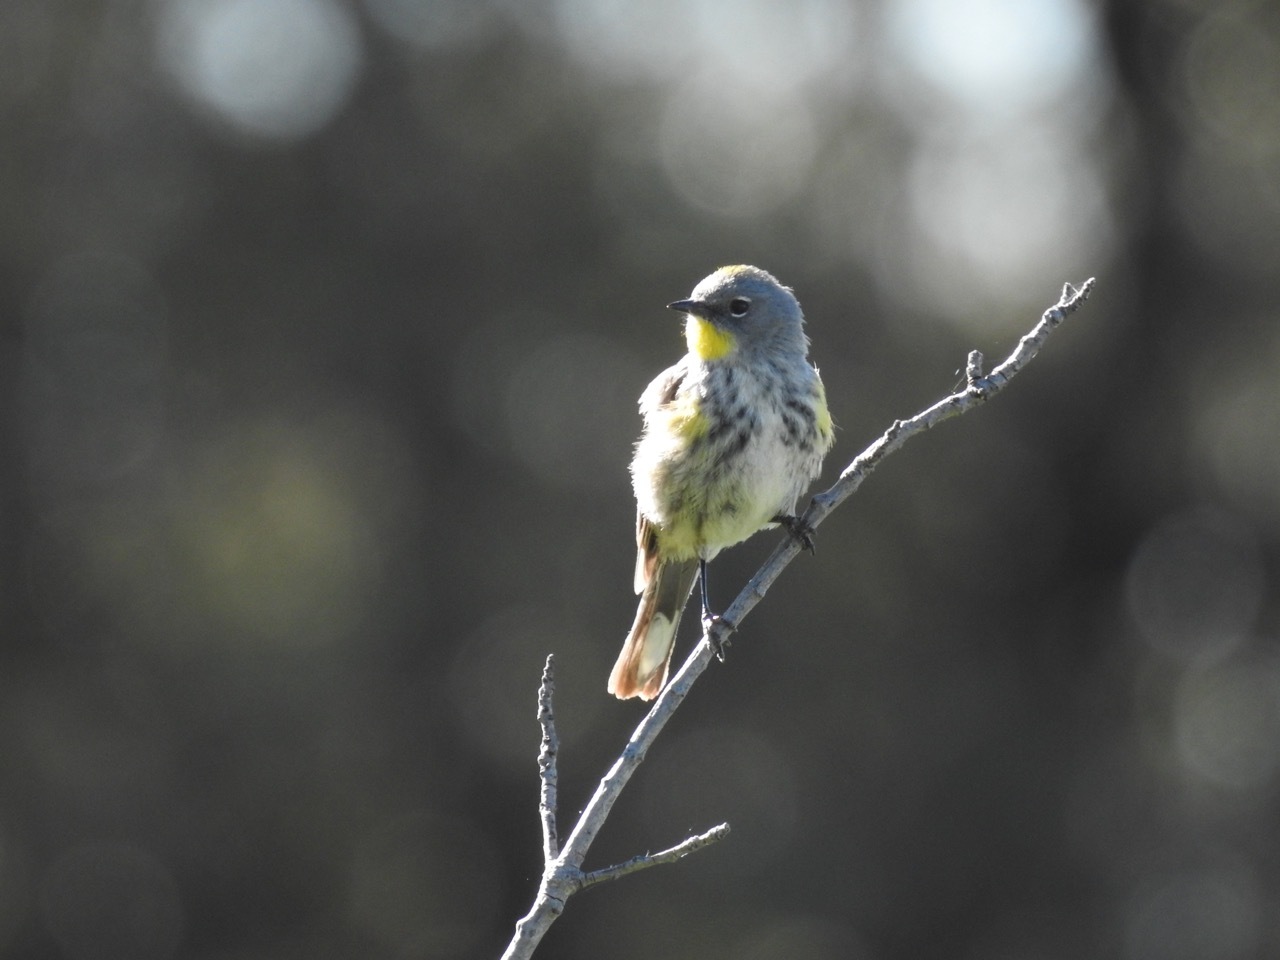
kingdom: Animalia
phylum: Chordata
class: Aves
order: Passeriformes
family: Parulidae
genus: Setophaga
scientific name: Setophaga auduboni
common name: Audubon's warbler
